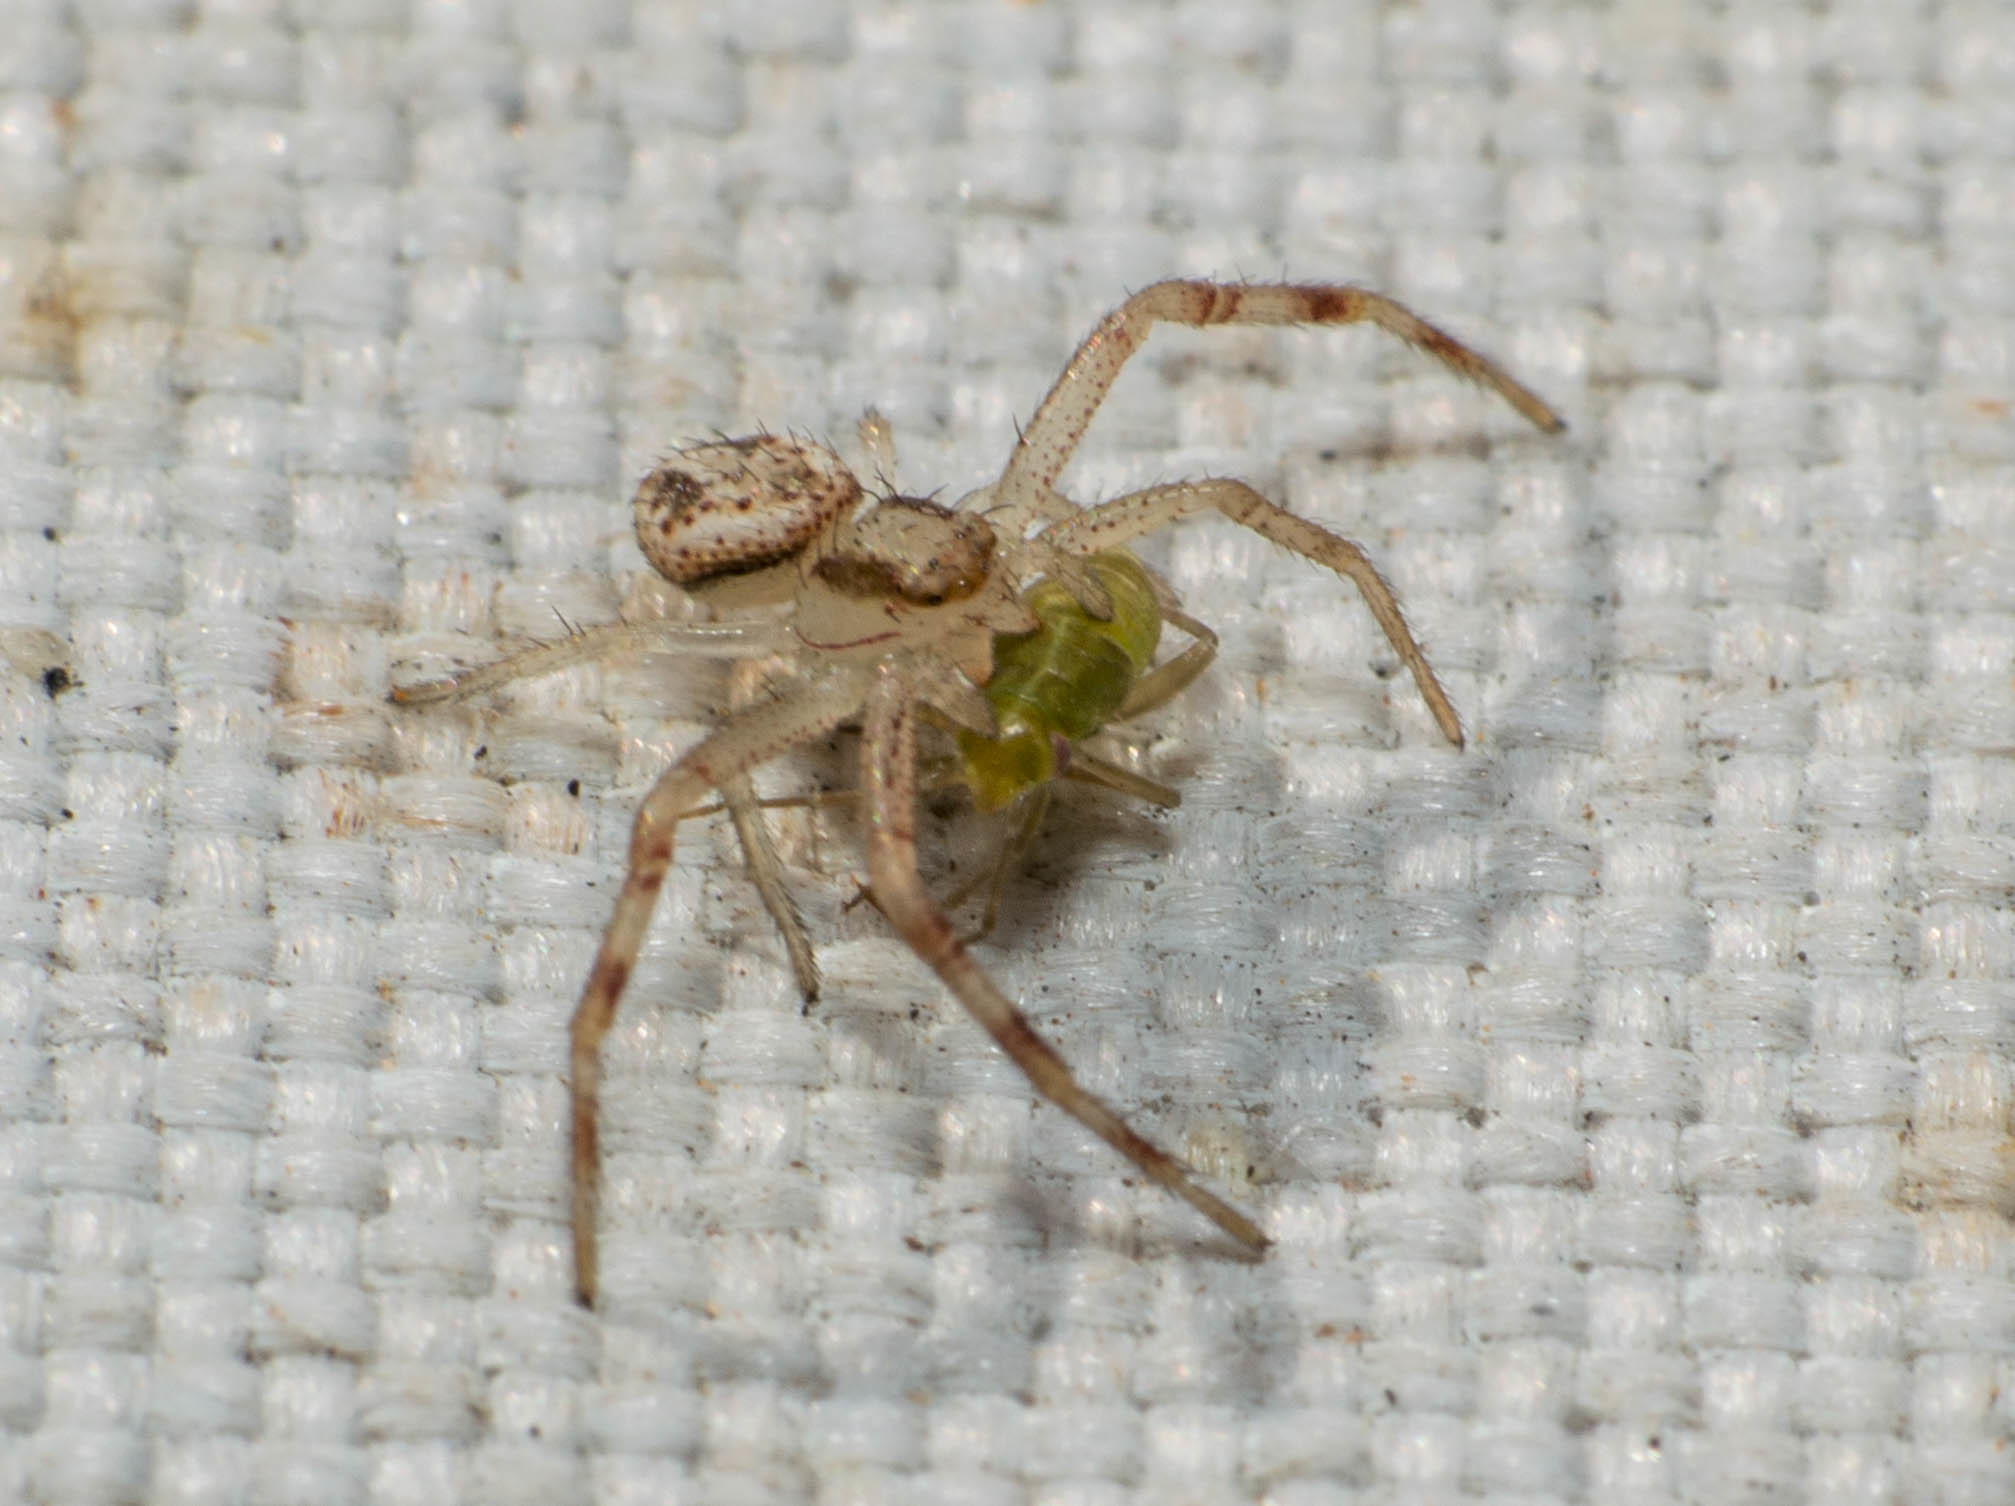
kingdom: Animalia
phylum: Arthropoda
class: Arachnida
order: Araneae
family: Thomisidae
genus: Misumenops
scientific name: Misumenops
